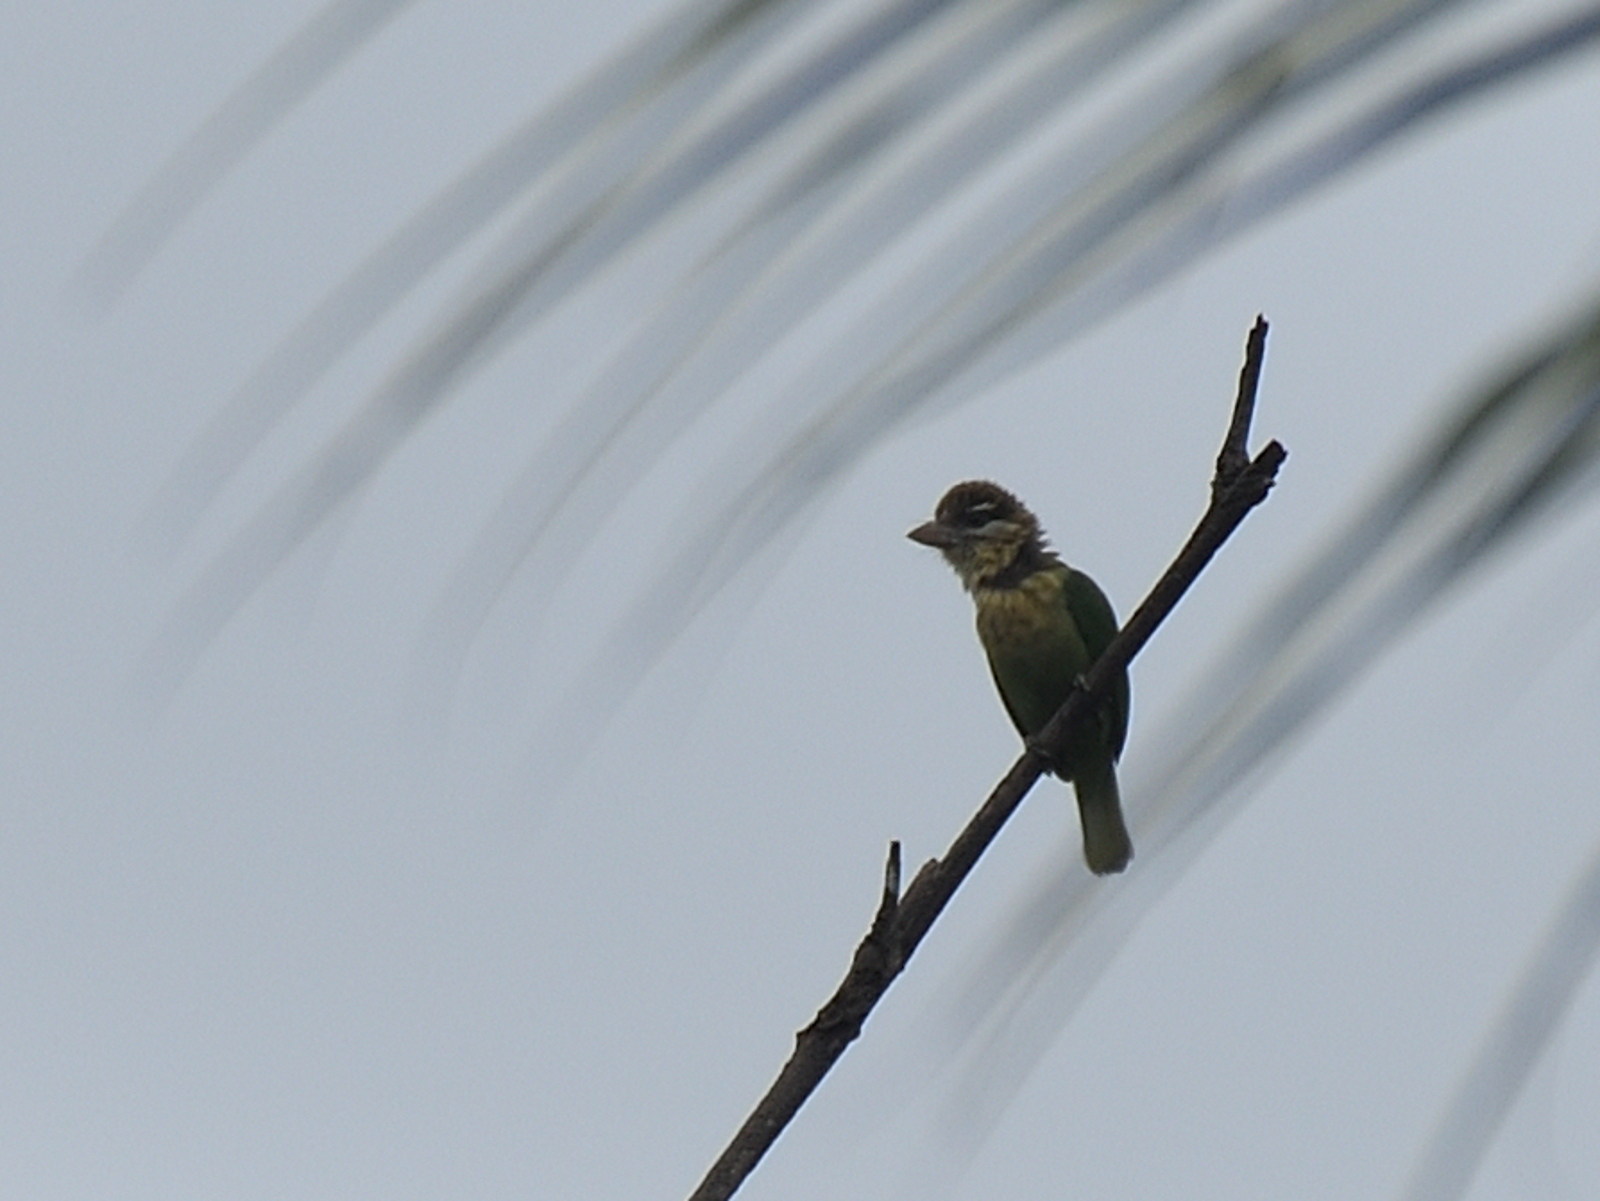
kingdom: Animalia
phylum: Chordata
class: Aves
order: Piciformes
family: Megalaimidae
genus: Psilopogon
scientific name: Psilopogon viridis
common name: White-cheeked barbet
